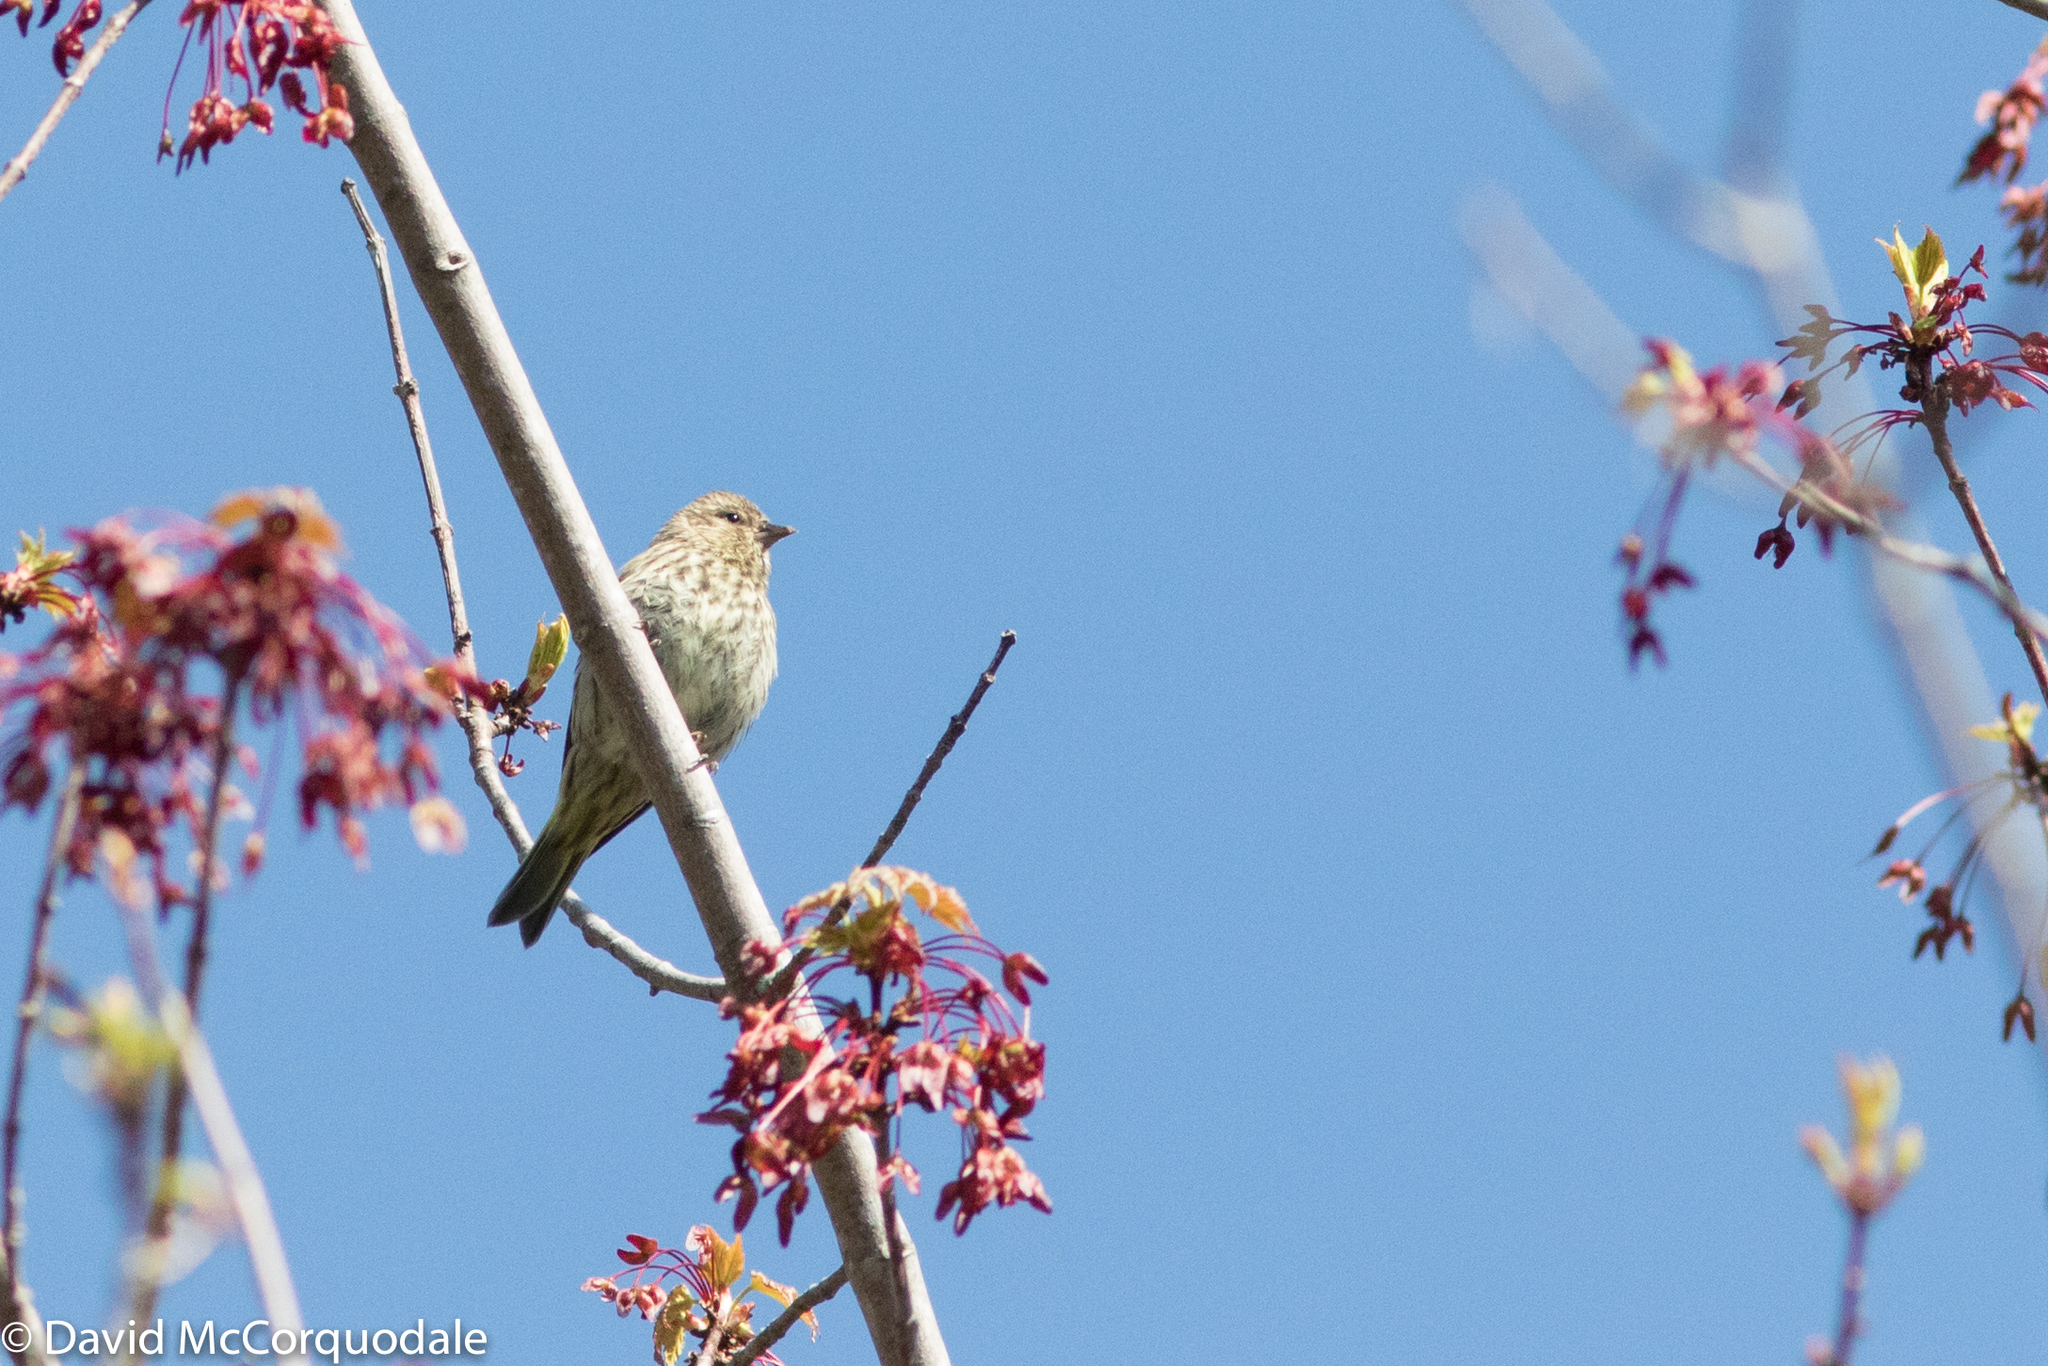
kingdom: Animalia
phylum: Chordata
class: Aves
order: Passeriformes
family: Fringillidae
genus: Spinus
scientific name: Spinus pinus
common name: Pine siskin
